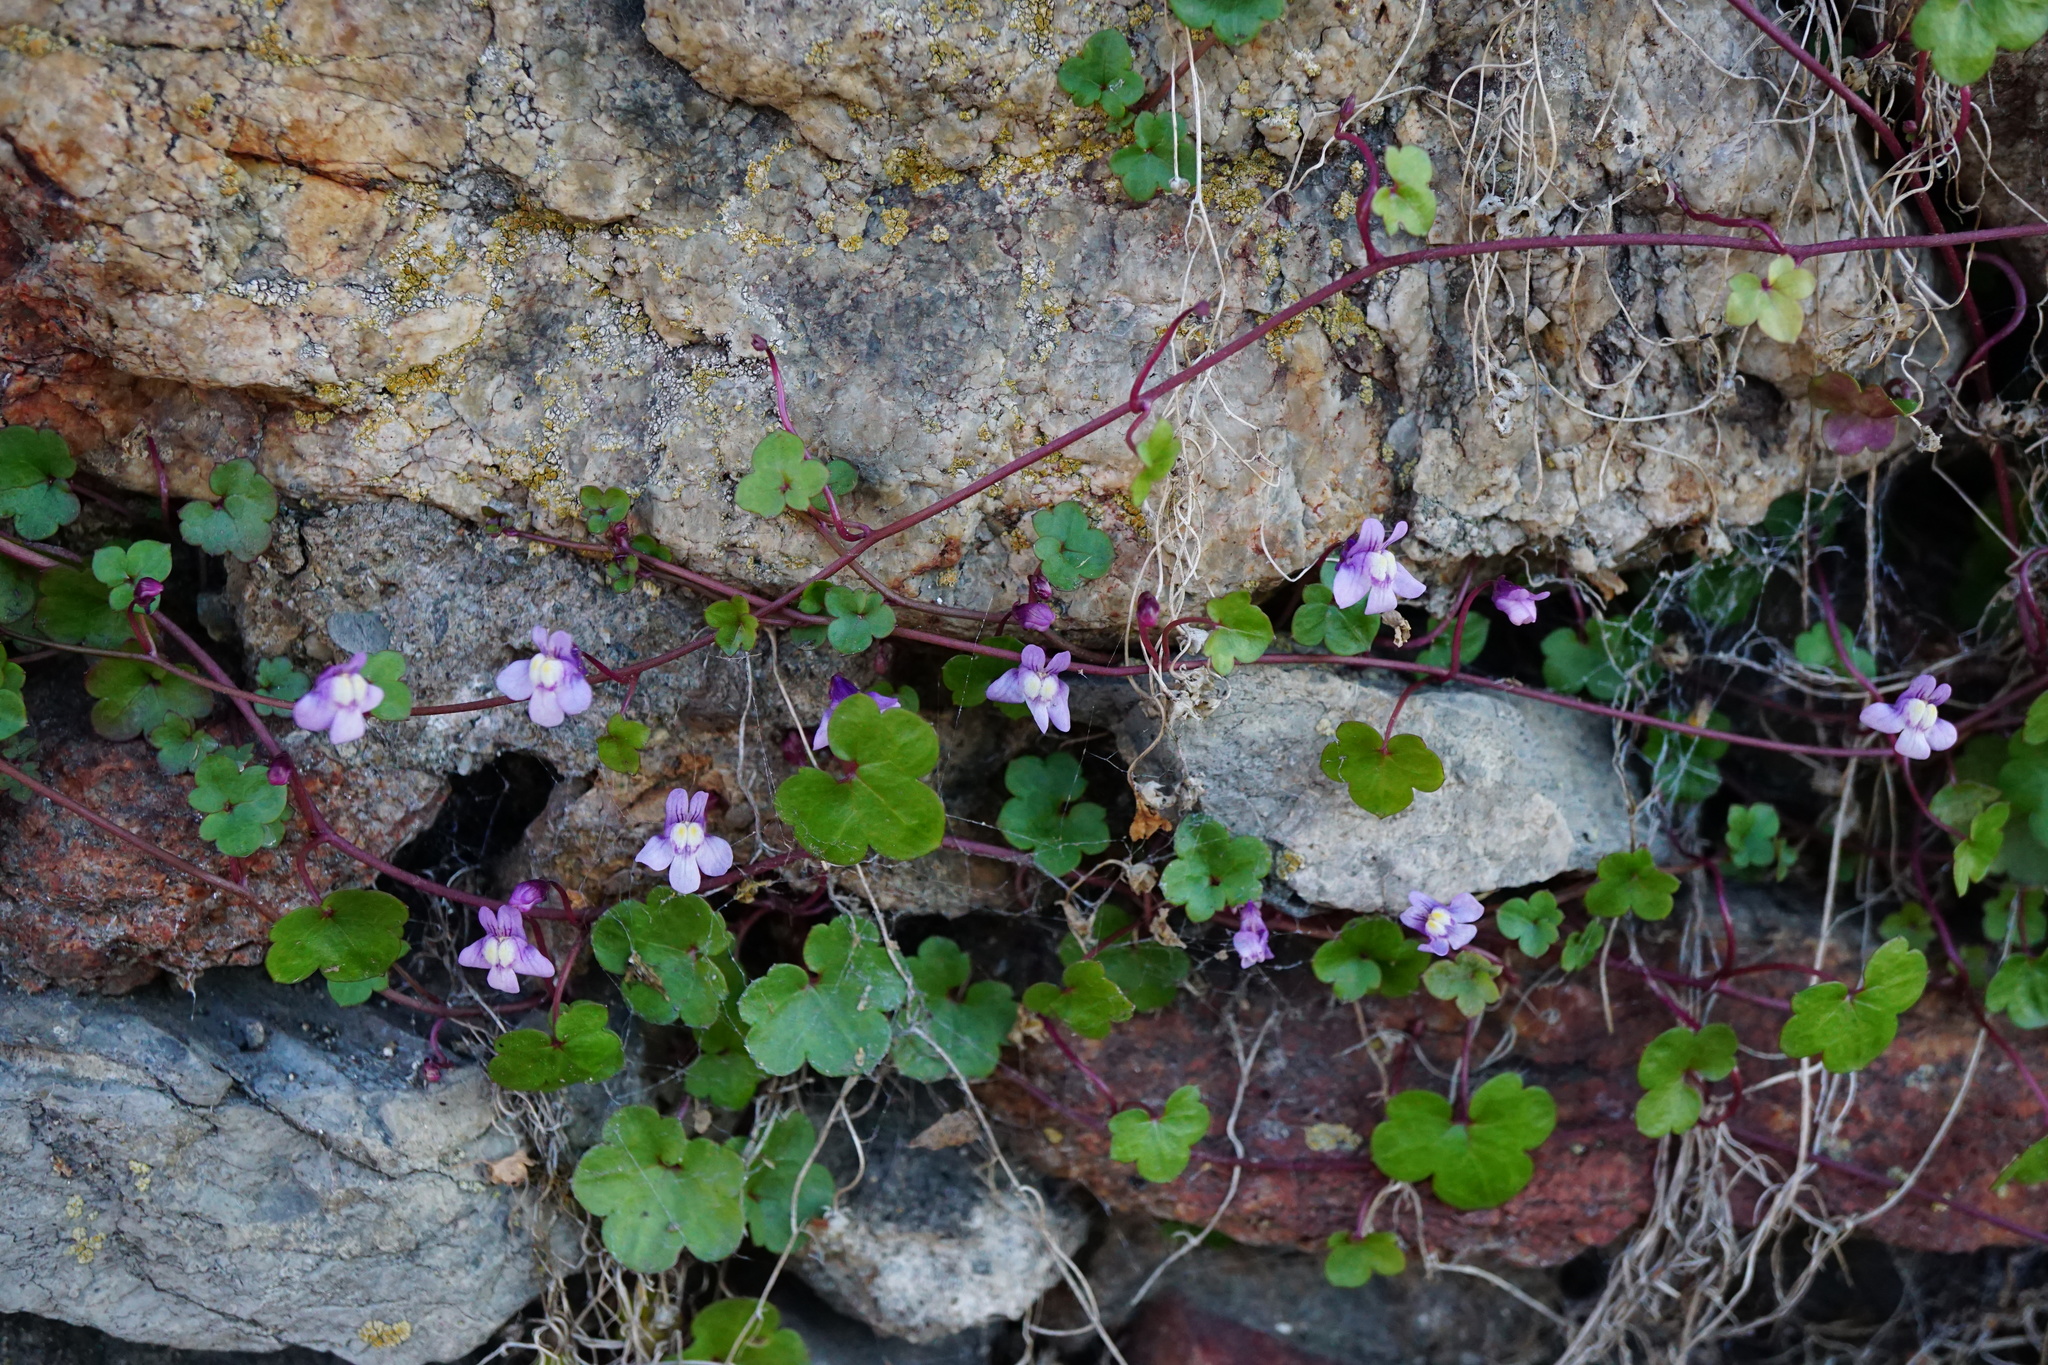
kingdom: Plantae
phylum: Tracheophyta
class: Magnoliopsida
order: Lamiales
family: Plantaginaceae
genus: Cymbalaria
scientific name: Cymbalaria muralis
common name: Ivy-leaved toadflax
